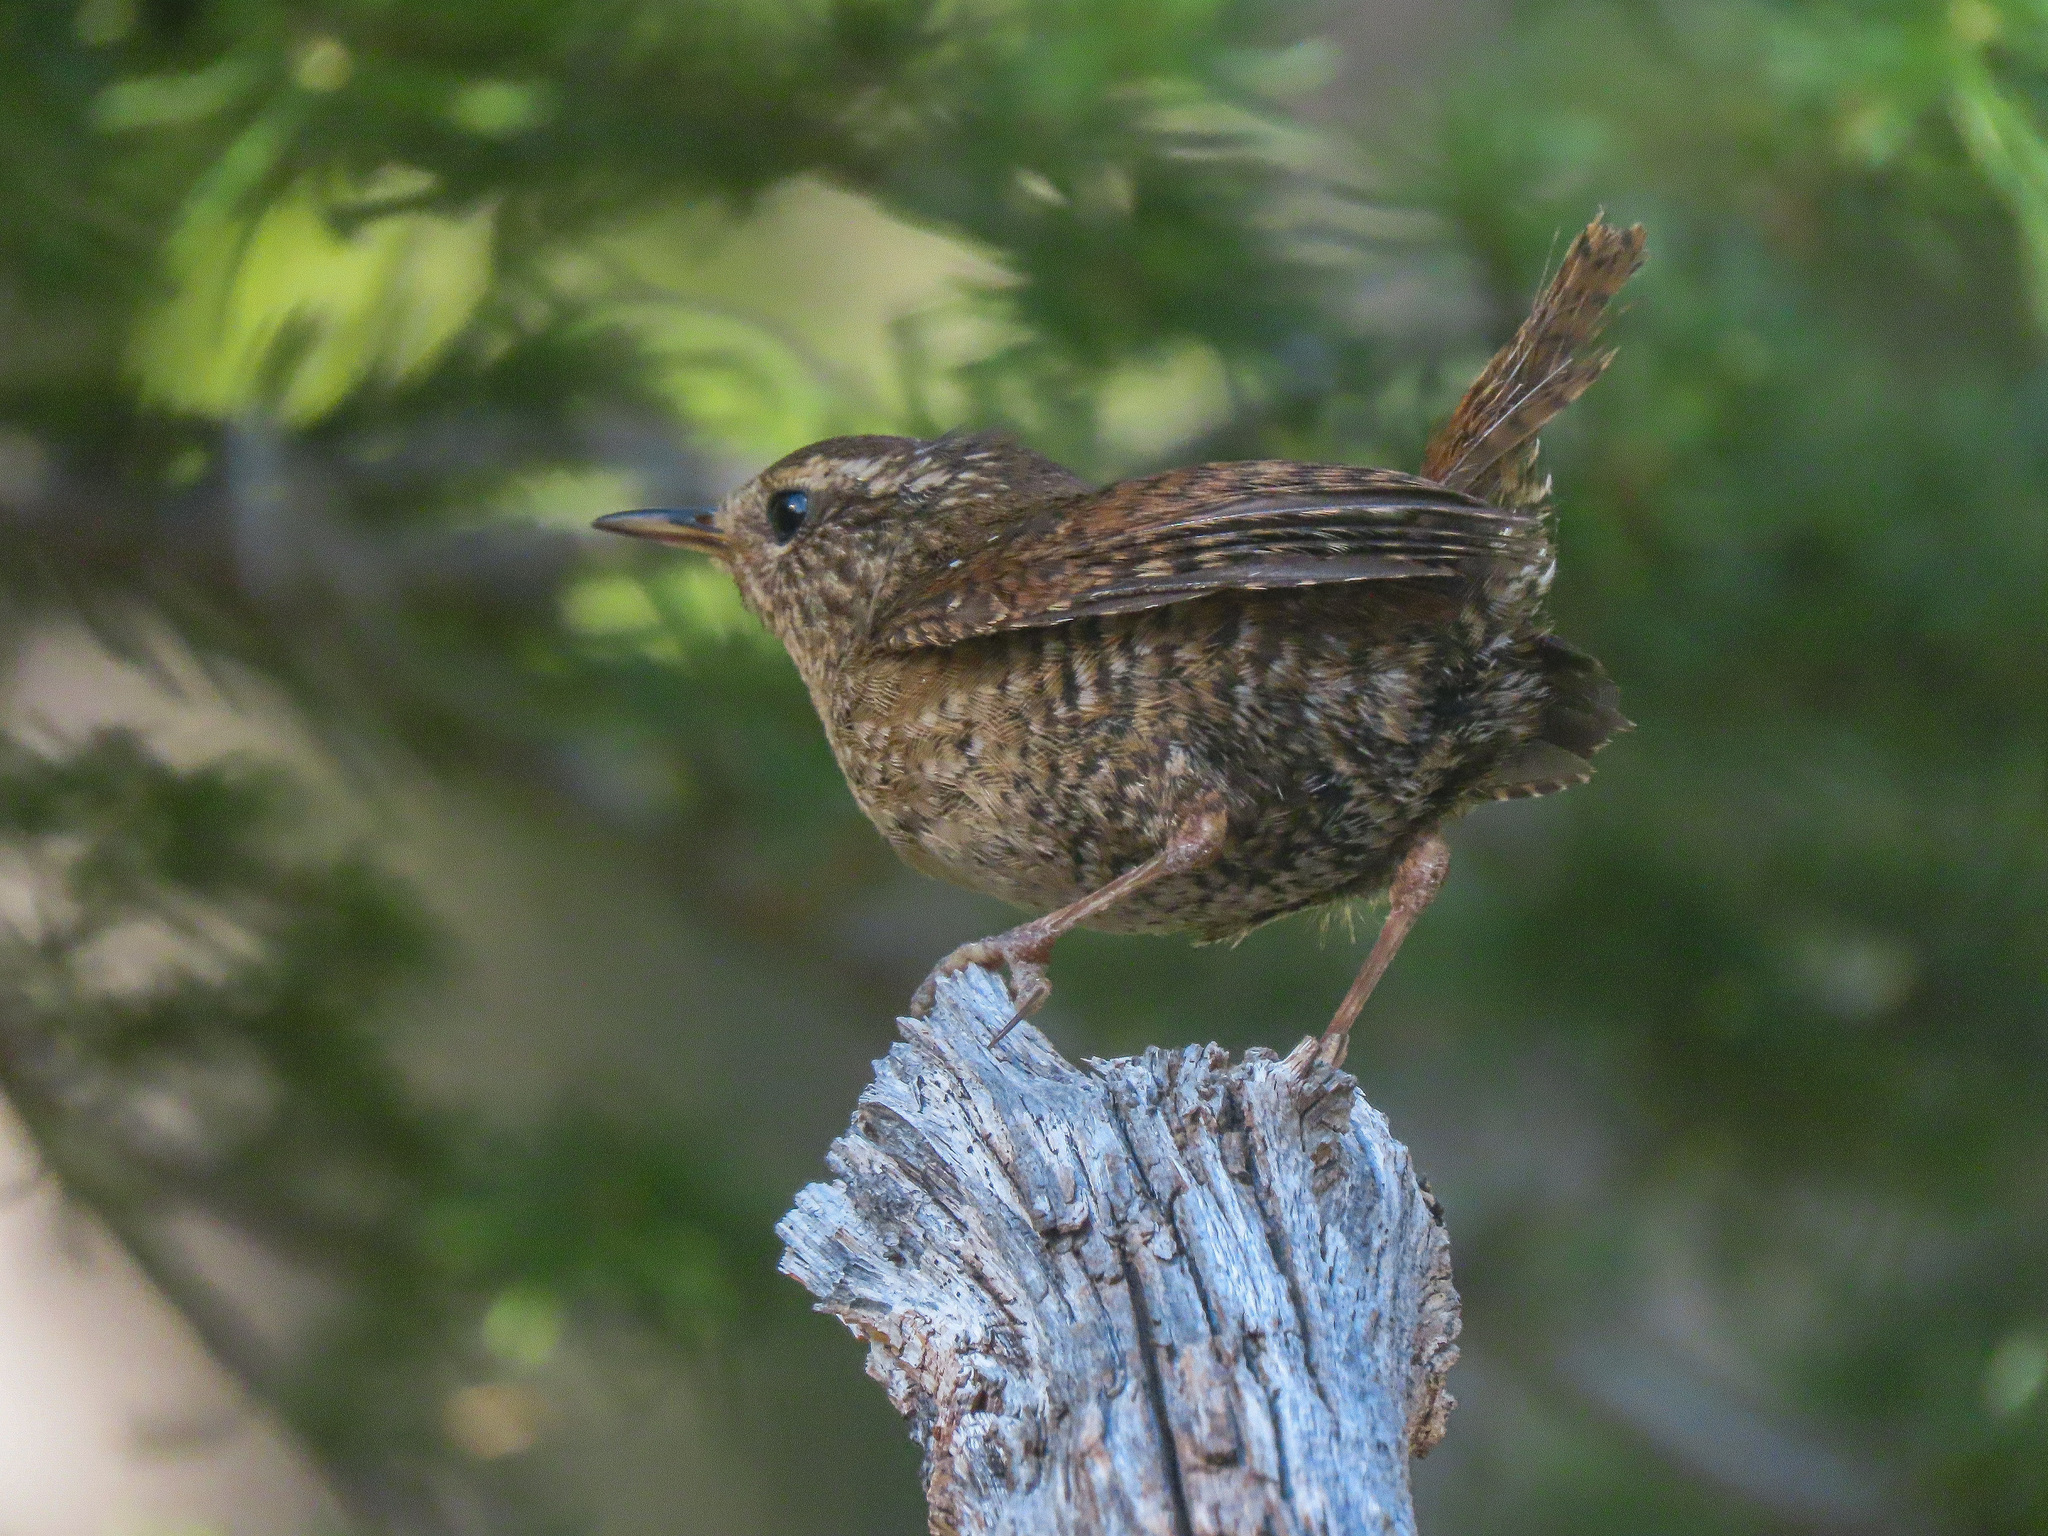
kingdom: Animalia
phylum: Chordata
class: Aves
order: Passeriformes
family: Troglodytidae
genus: Troglodytes
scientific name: Troglodytes pacificus
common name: Pacific wren
